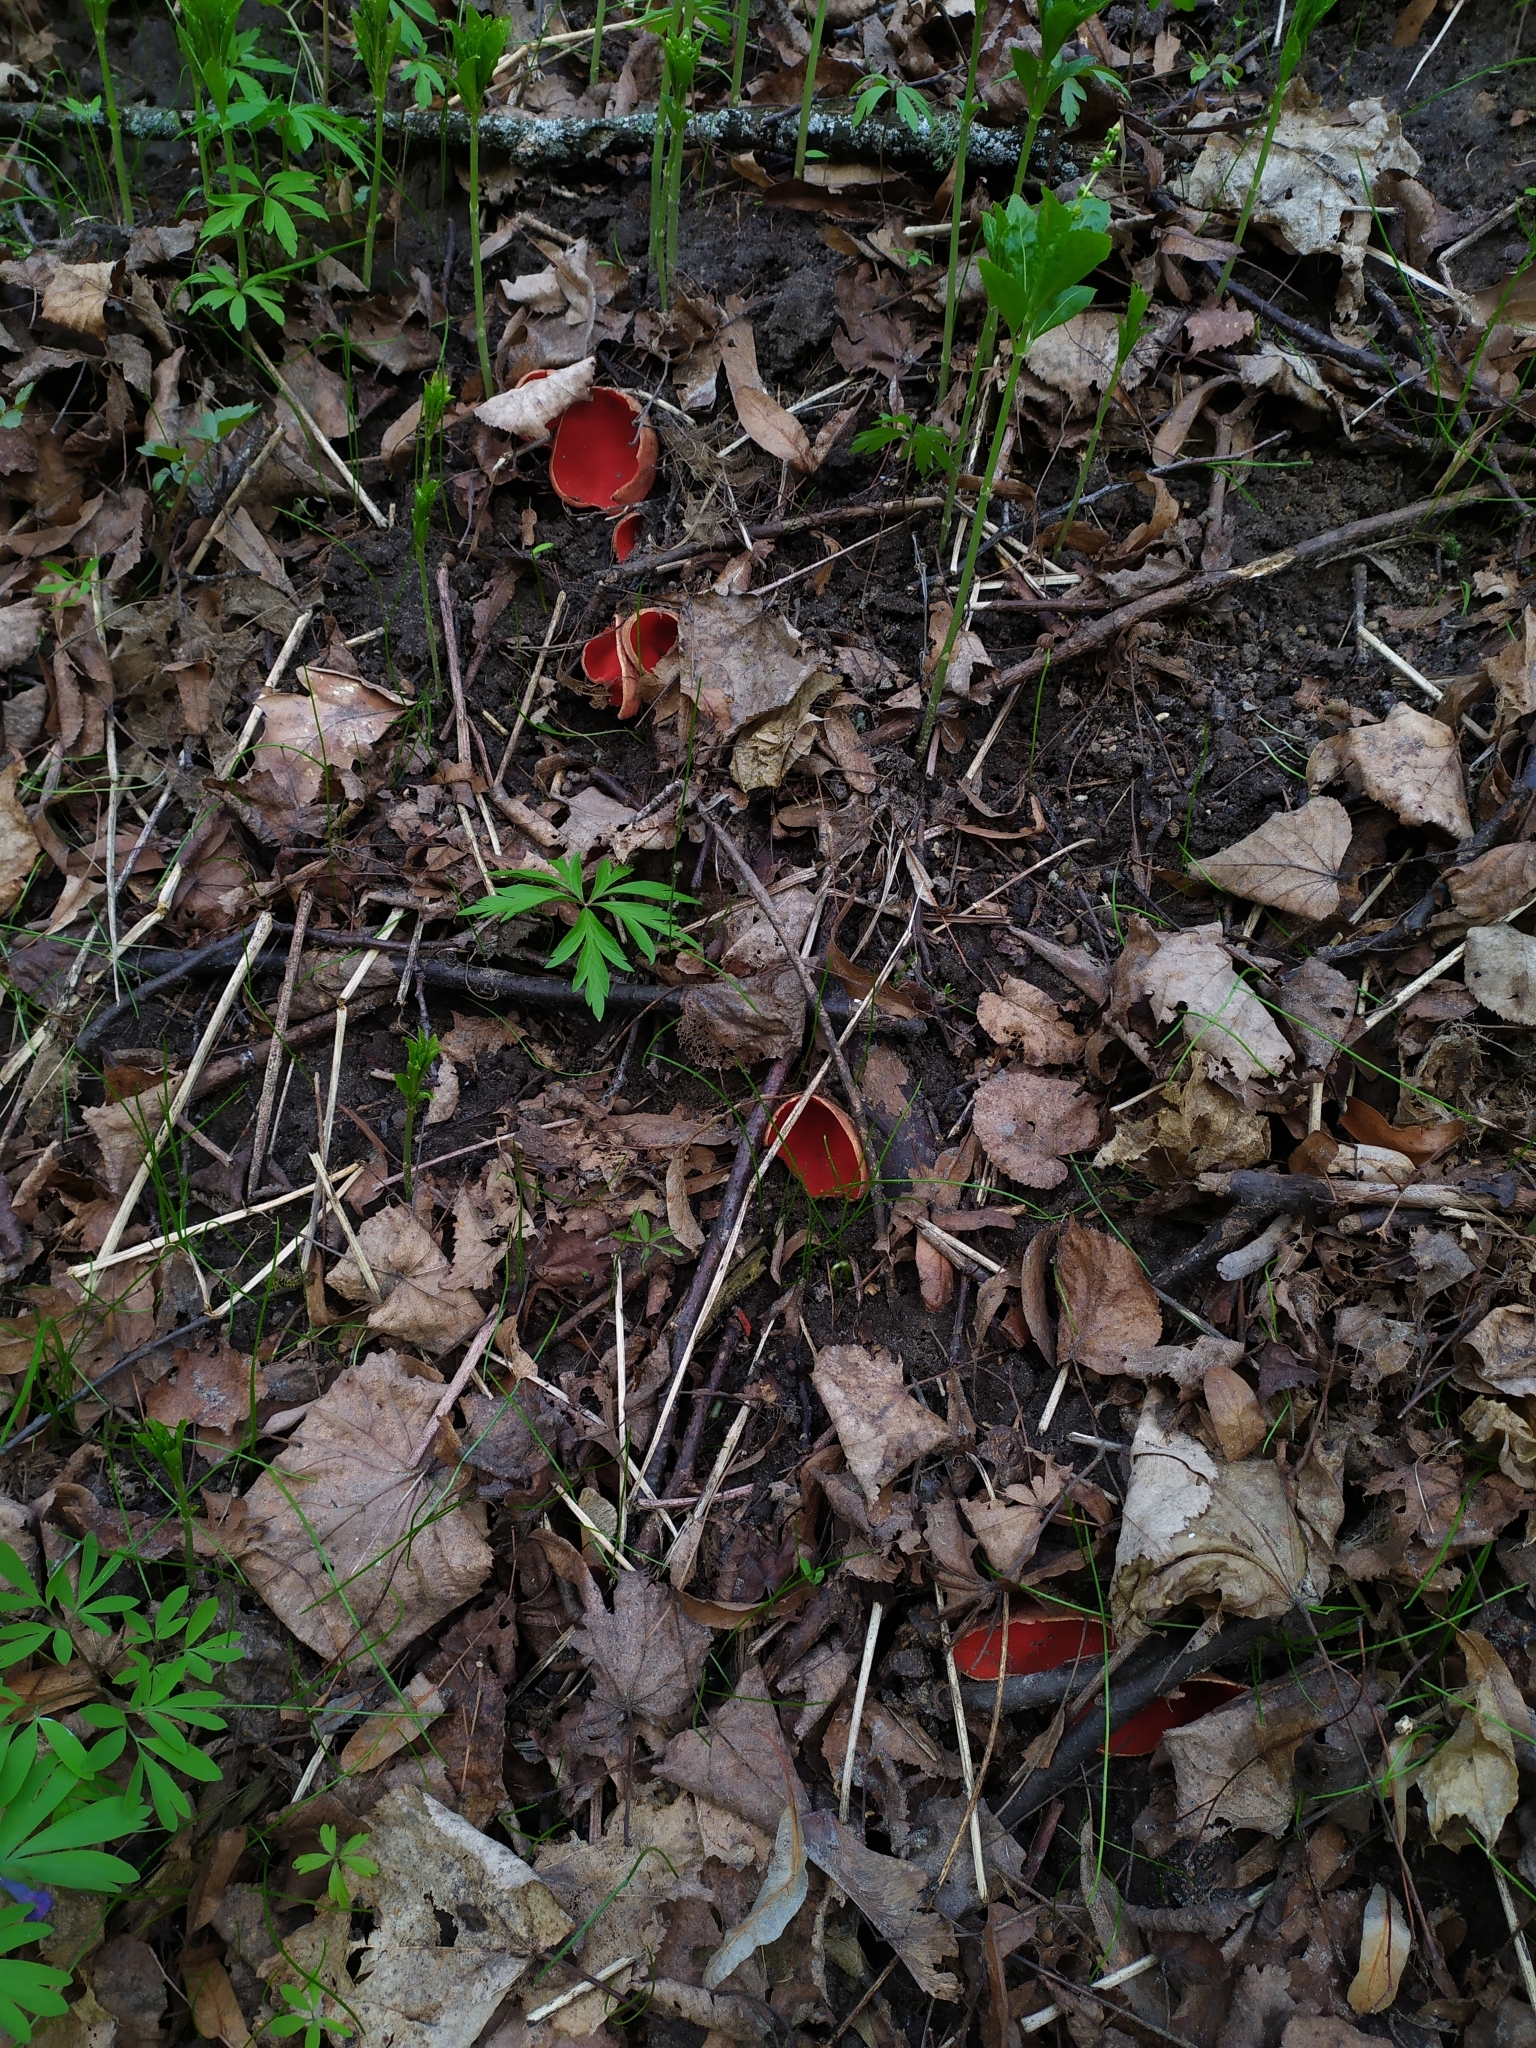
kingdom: Fungi
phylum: Ascomycota
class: Pezizomycetes
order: Pezizales
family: Sarcoscyphaceae
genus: Sarcoscypha
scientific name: Sarcoscypha
